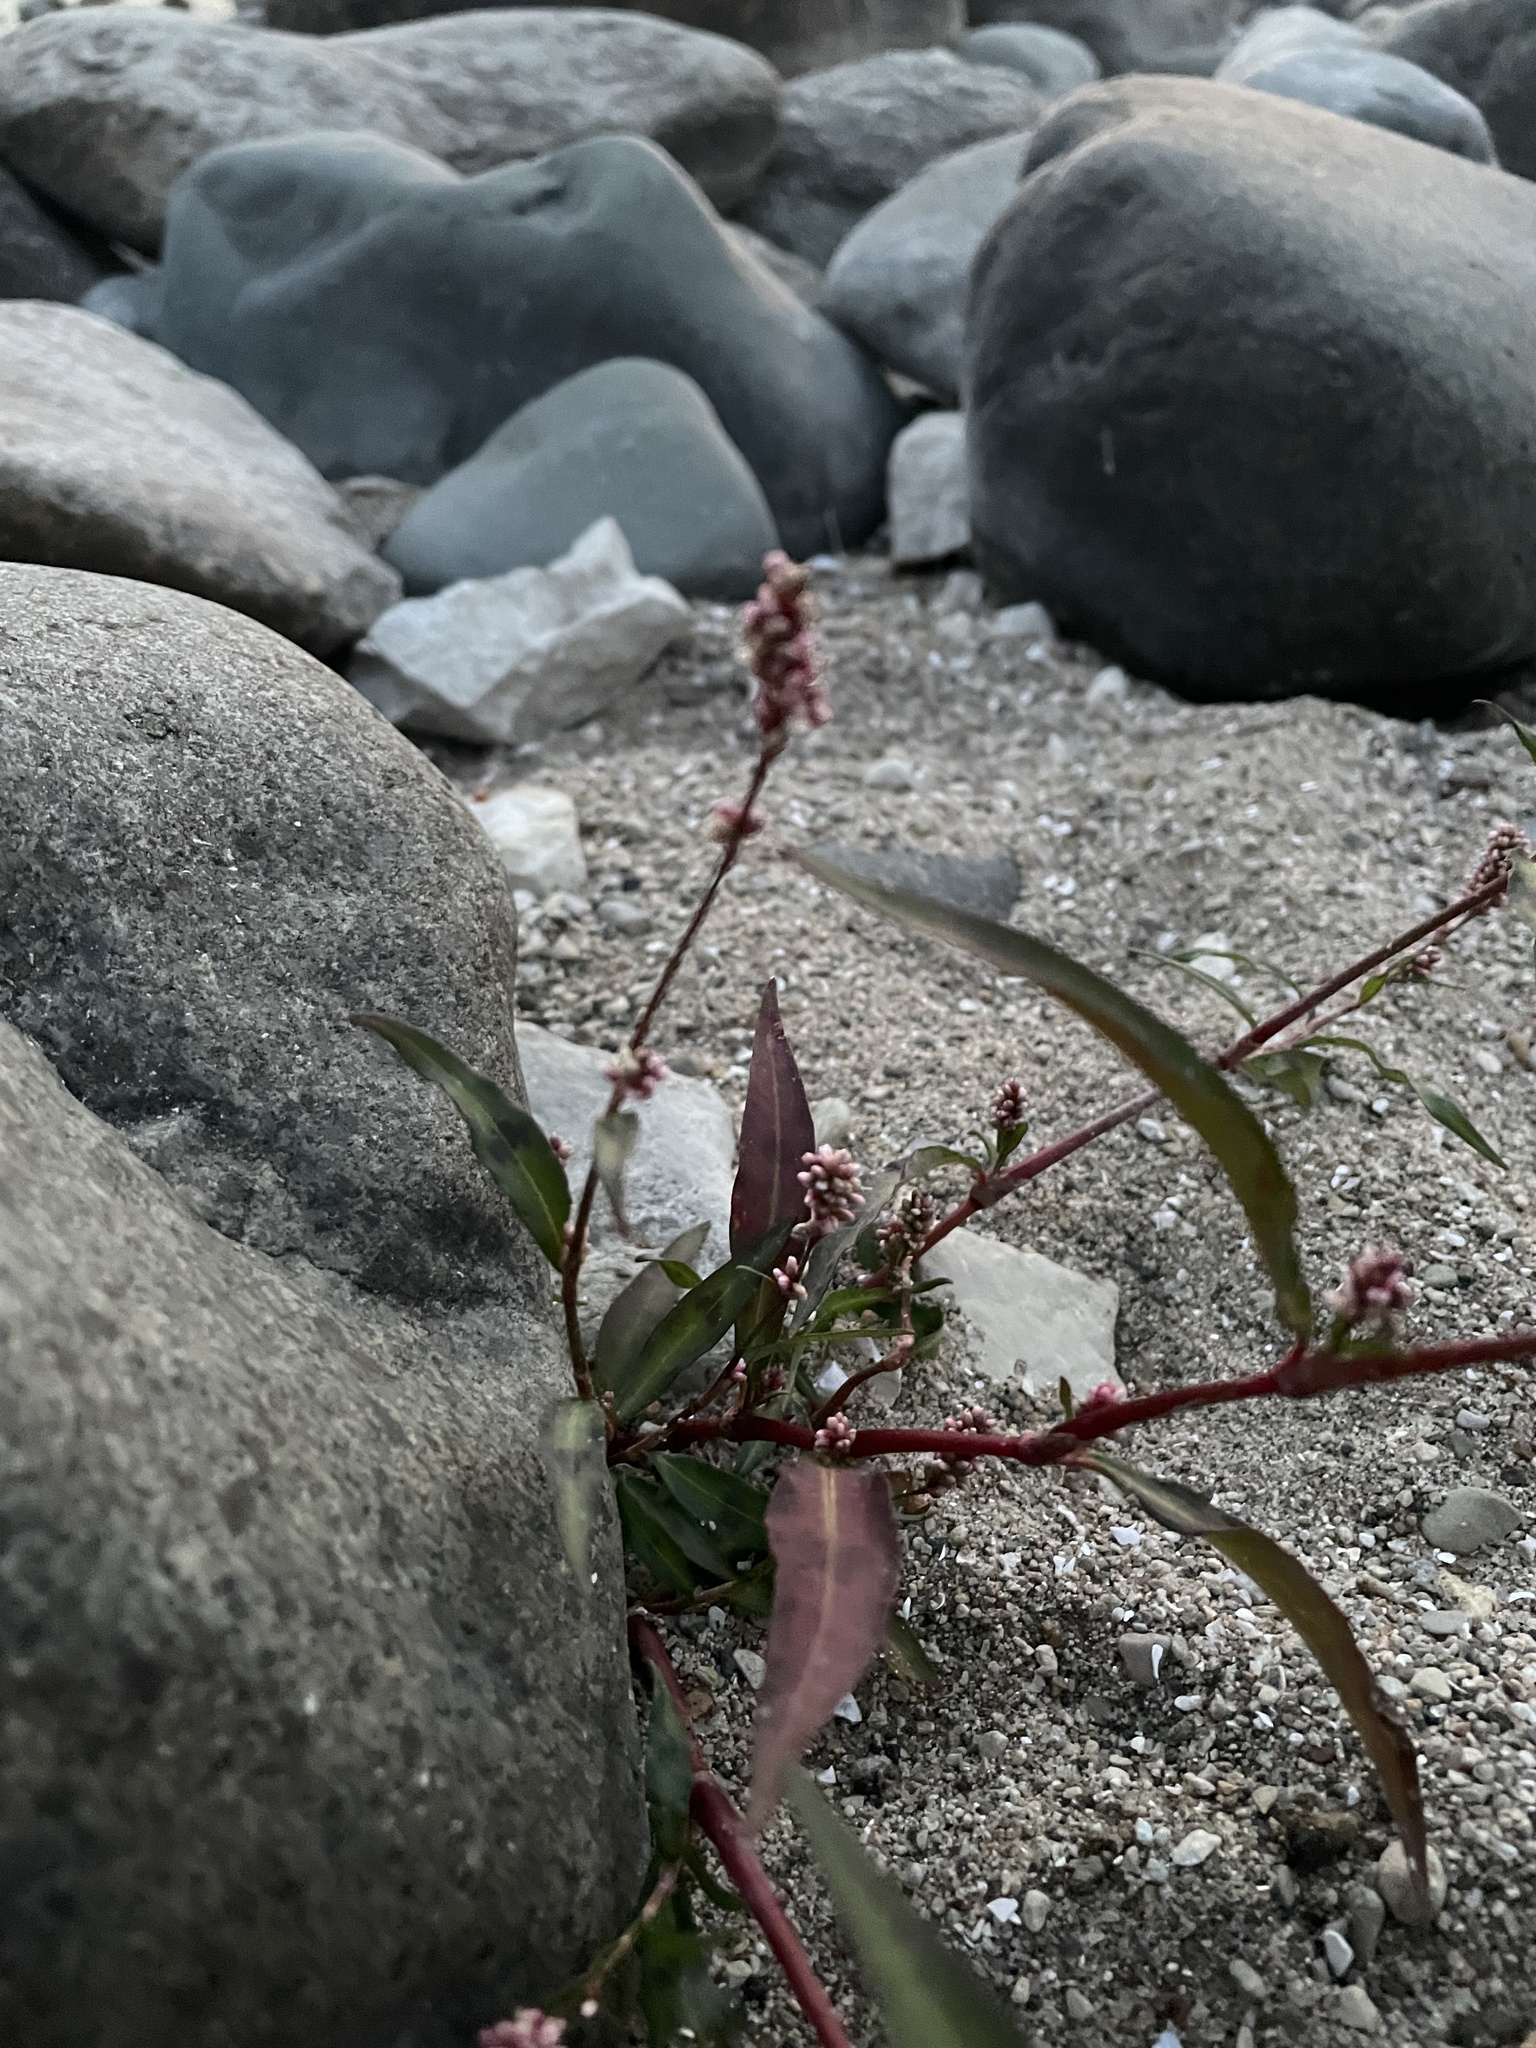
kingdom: Plantae
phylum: Tracheophyta
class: Magnoliopsida
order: Caryophyllales
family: Polygonaceae
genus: Persicaria
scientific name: Persicaria maculosa
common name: Redshank
